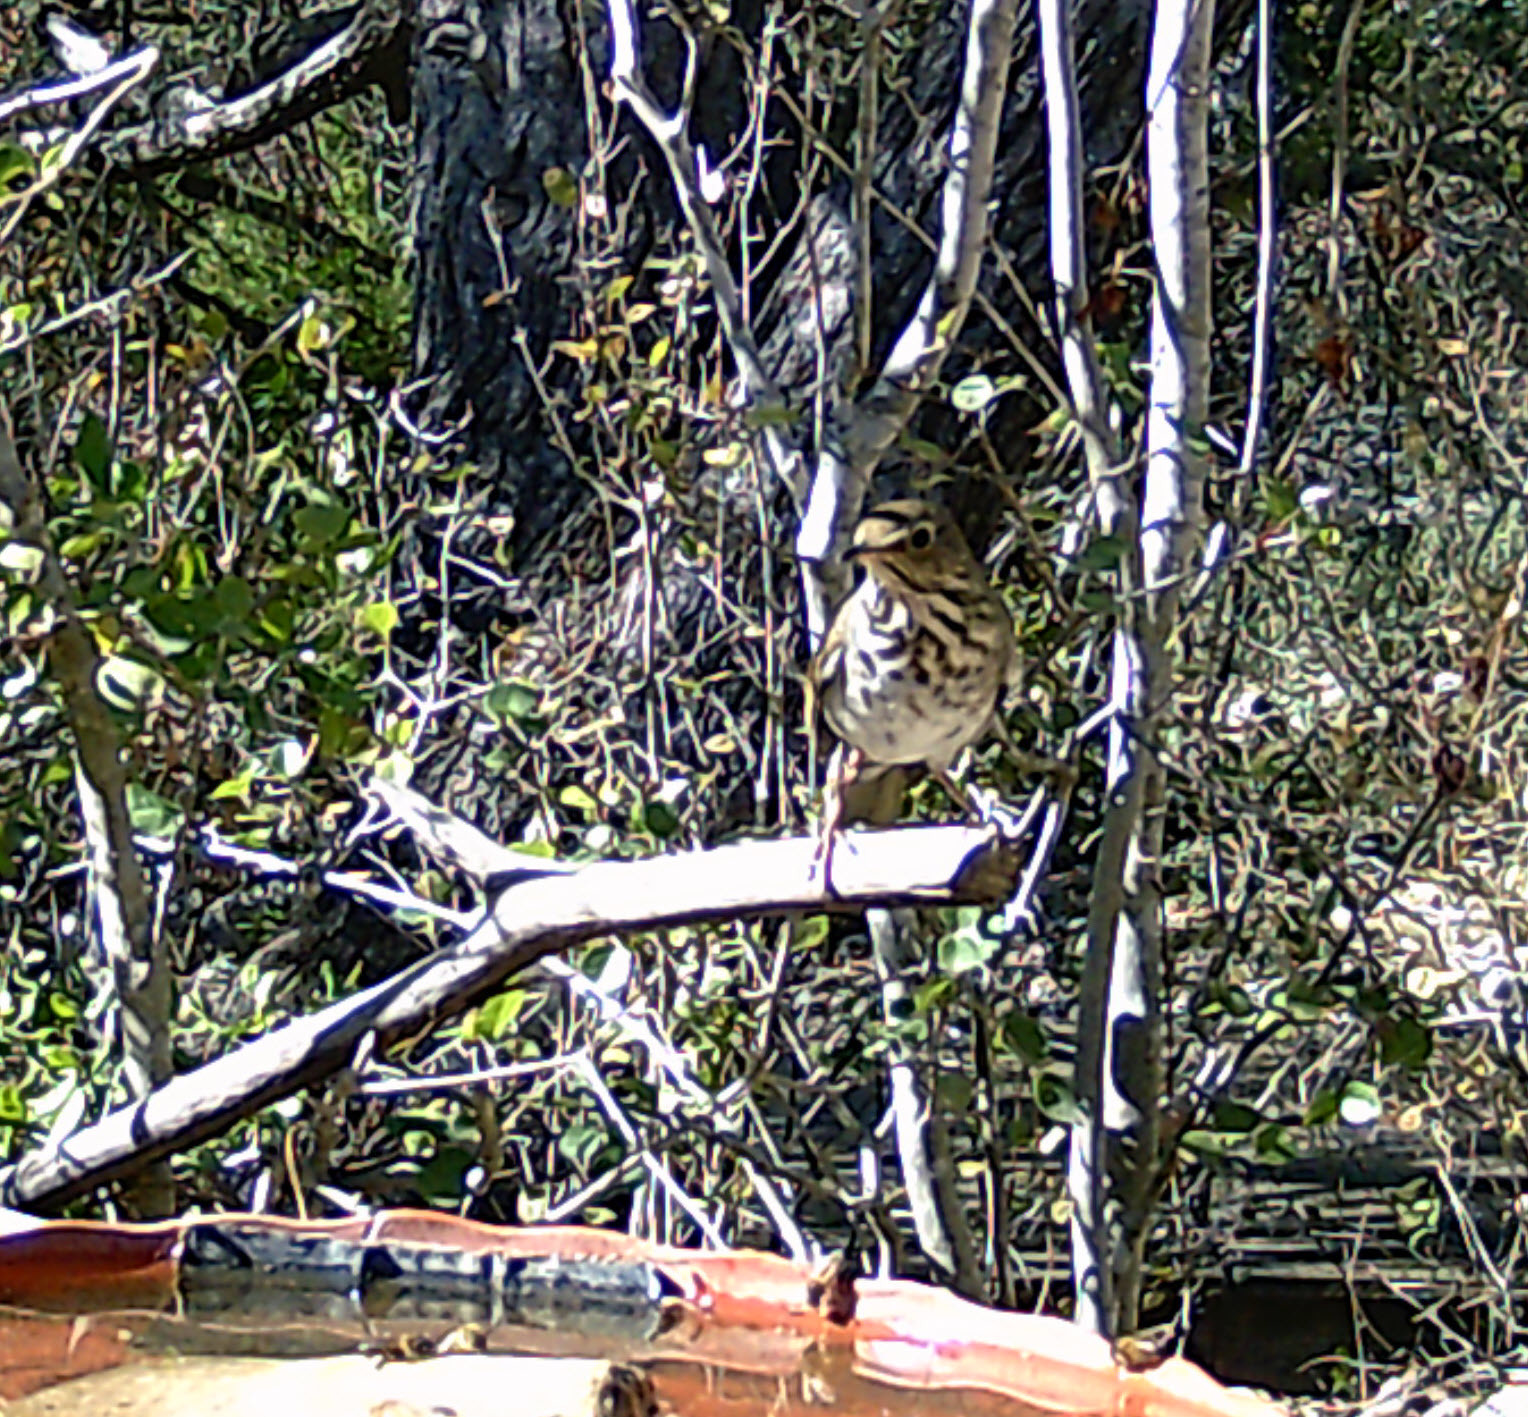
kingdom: Animalia
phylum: Chordata
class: Aves
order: Passeriformes
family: Turdidae
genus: Catharus
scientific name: Catharus guttatus
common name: Hermit thrush
